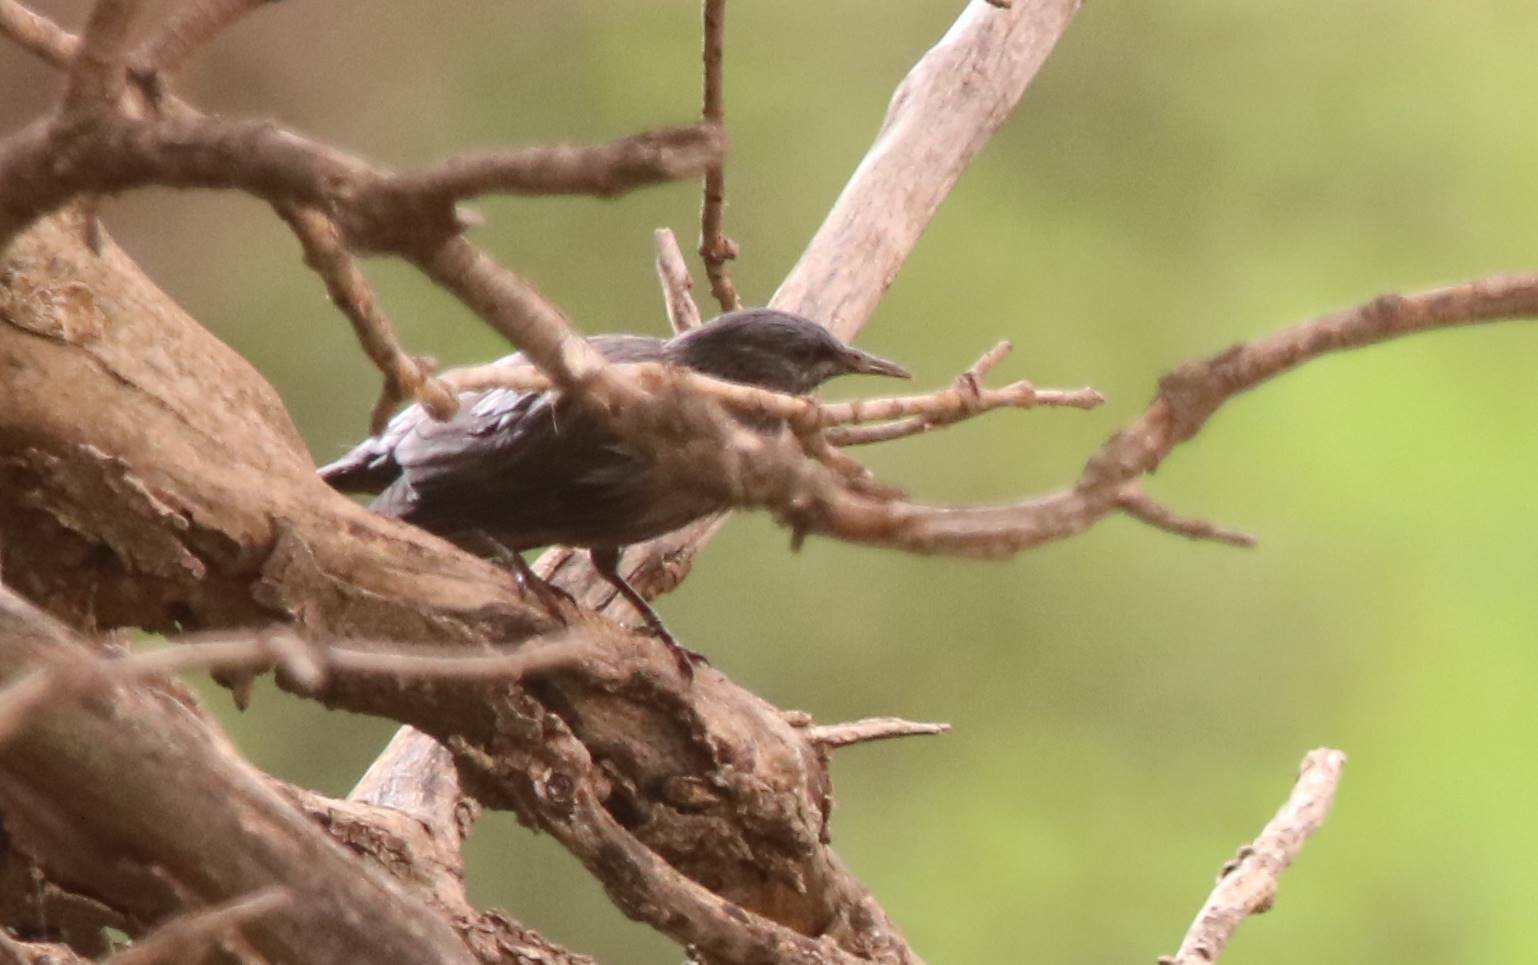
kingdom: Animalia
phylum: Chordata
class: Aves
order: Passeriformes
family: Sturnidae
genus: Sturnus
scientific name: Sturnus unicolor
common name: Spotless starling
